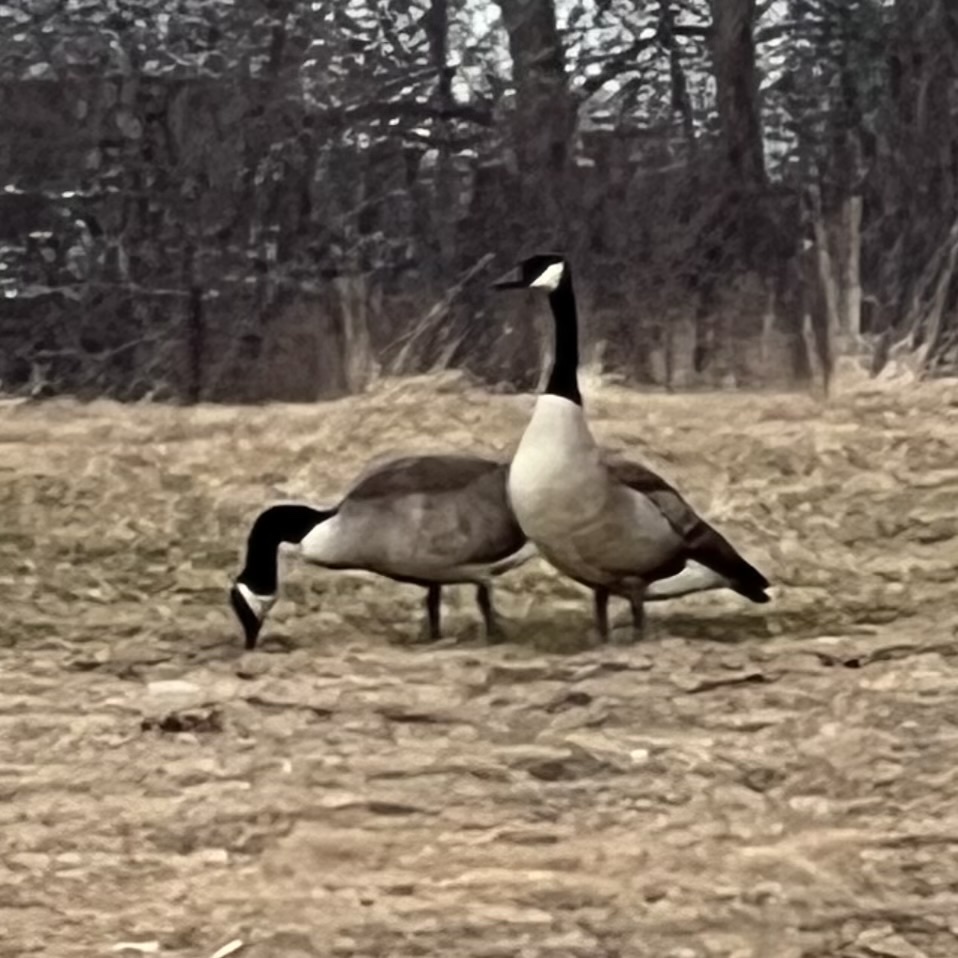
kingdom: Animalia
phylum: Chordata
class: Aves
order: Anseriformes
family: Anatidae
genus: Branta
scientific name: Branta canadensis
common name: Canada goose
